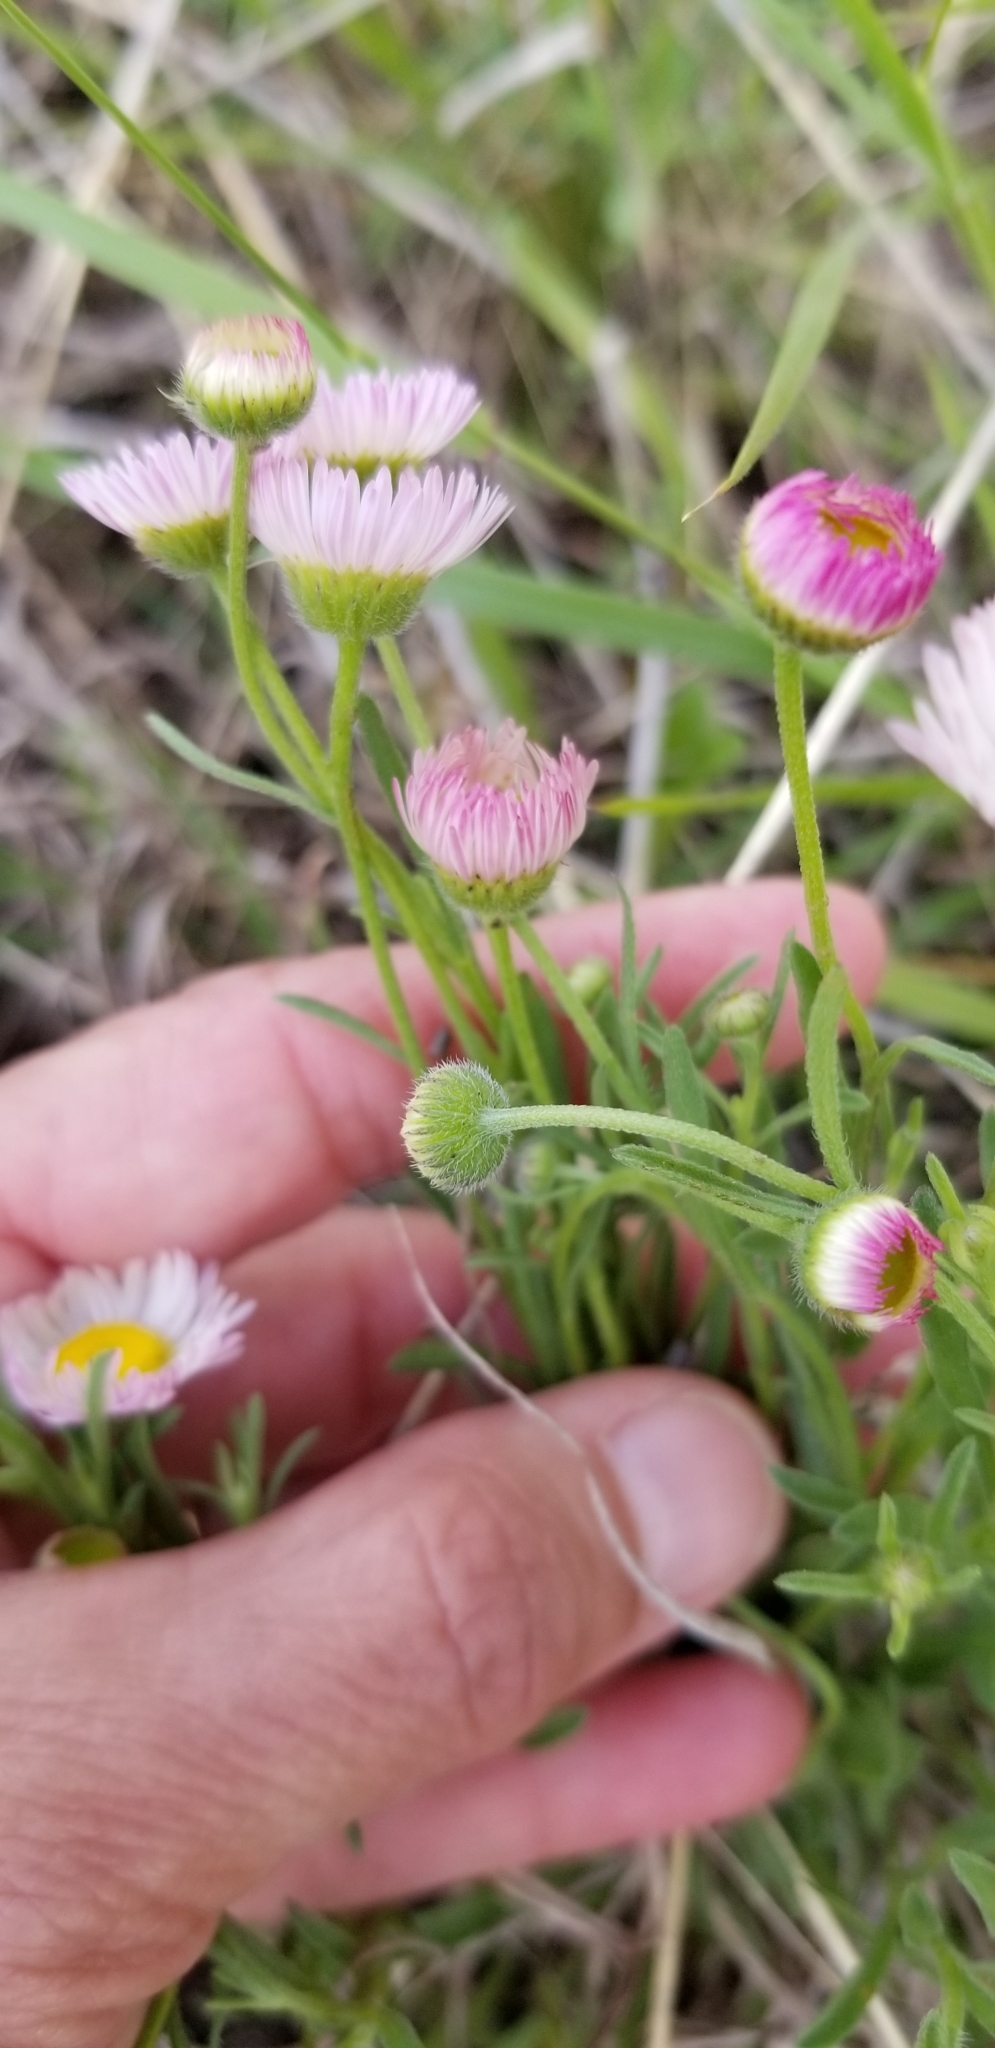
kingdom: Plantae
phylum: Tracheophyta
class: Magnoliopsida
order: Asterales
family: Asteraceae
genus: Erigeron
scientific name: Erigeron modestus
